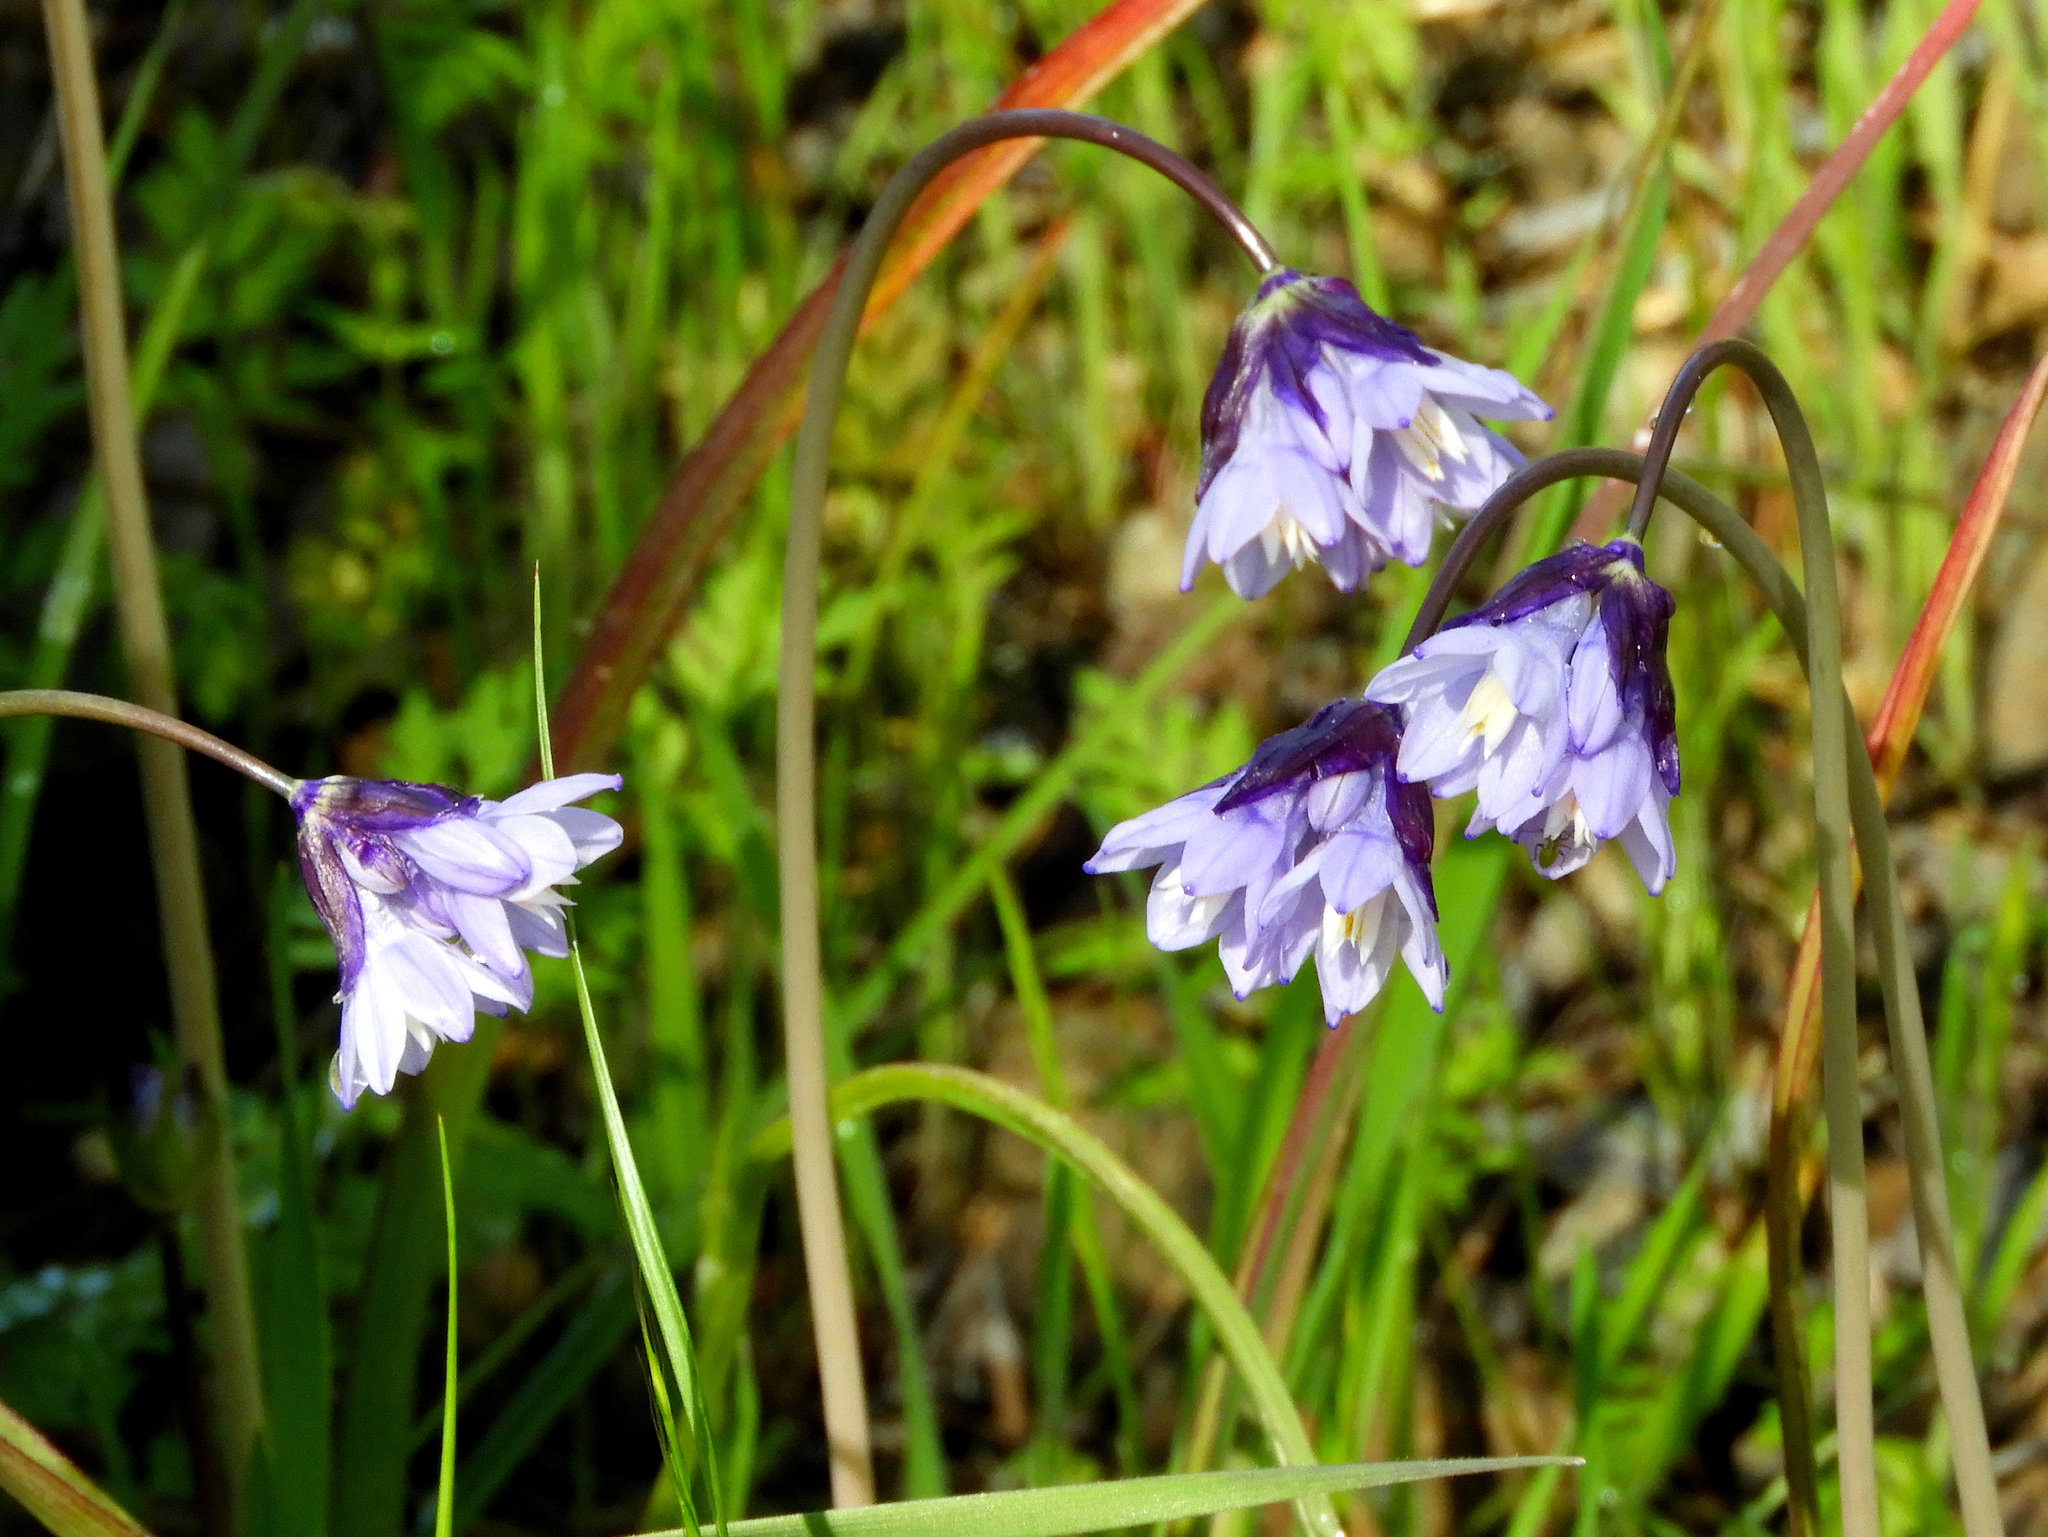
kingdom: Plantae
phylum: Tracheophyta
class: Liliopsida
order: Asparagales
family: Asparagaceae
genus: Dipterostemon
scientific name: Dipterostemon capitatus
